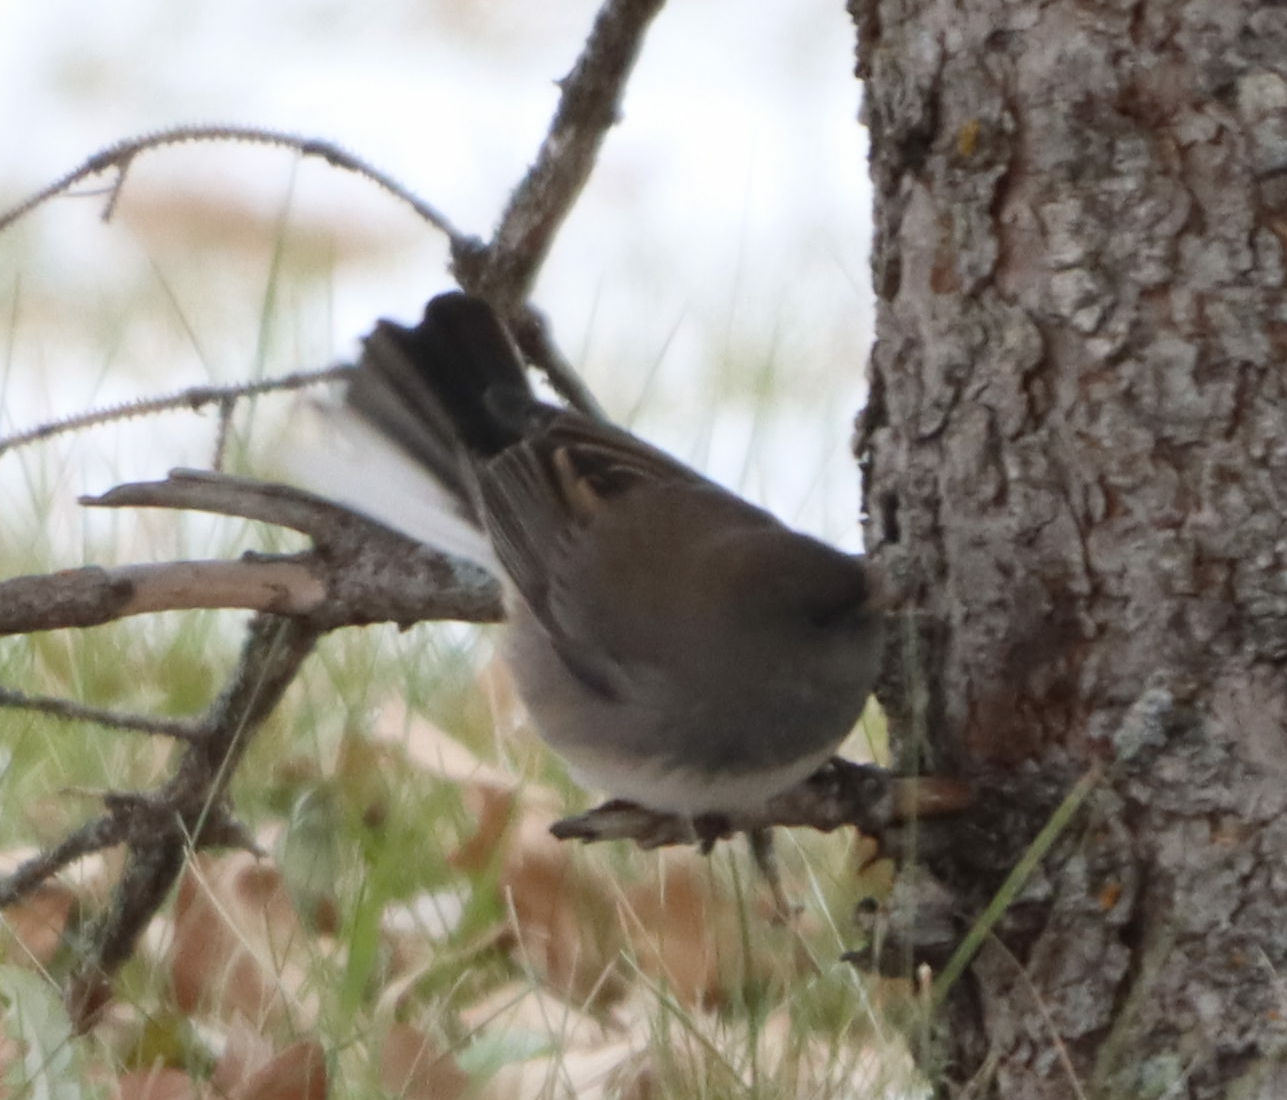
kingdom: Animalia
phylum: Chordata
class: Aves
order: Passeriformes
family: Passerellidae
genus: Junco
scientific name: Junco hyemalis
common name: Dark-eyed junco
